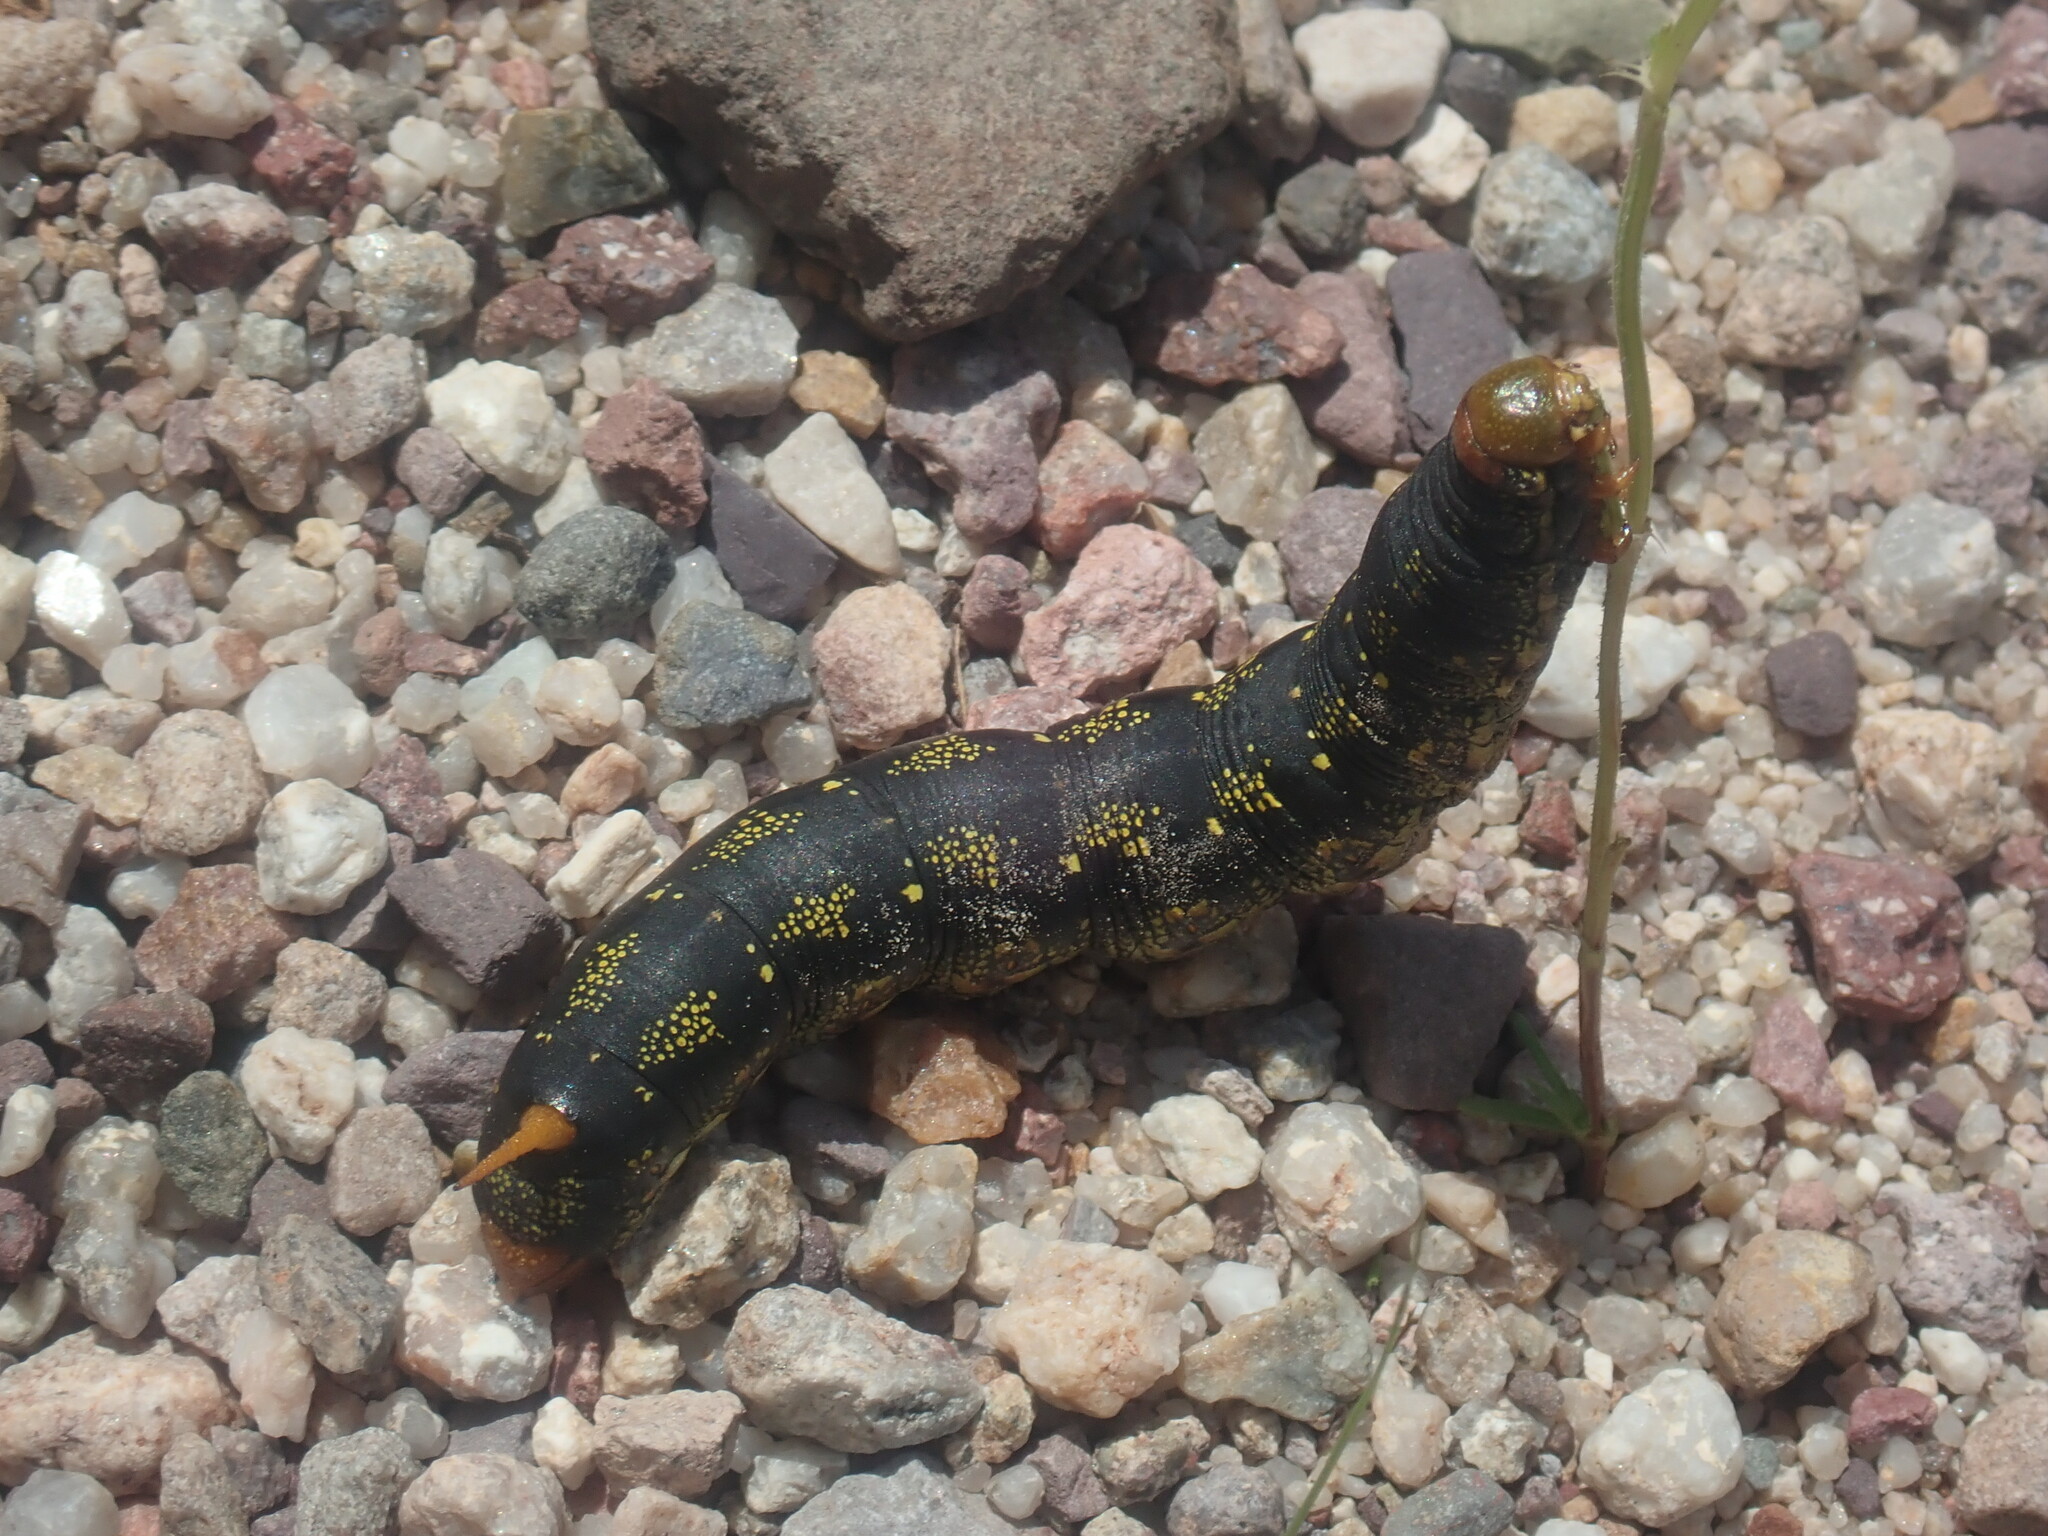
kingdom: Animalia
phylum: Arthropoda
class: Insecta
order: Lepidoptera
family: Sphingidae
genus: Hyles
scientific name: Hyles lineata
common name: White-lined sphinx
